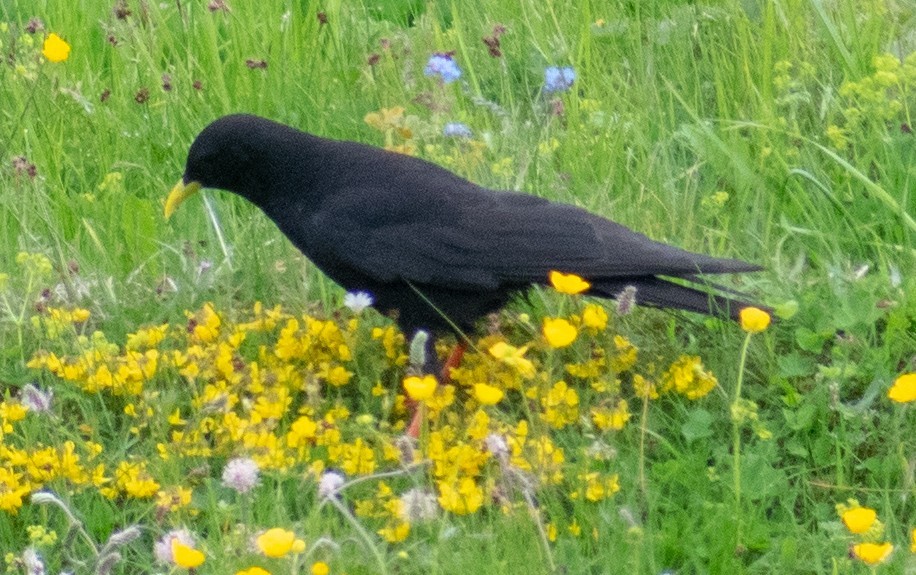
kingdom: Animalia
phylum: Chordata
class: Aves
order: Passeriformes
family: Corvidae
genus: Pyrrhocorax
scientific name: Pyrrhocorax graculus
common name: Alpine chough
